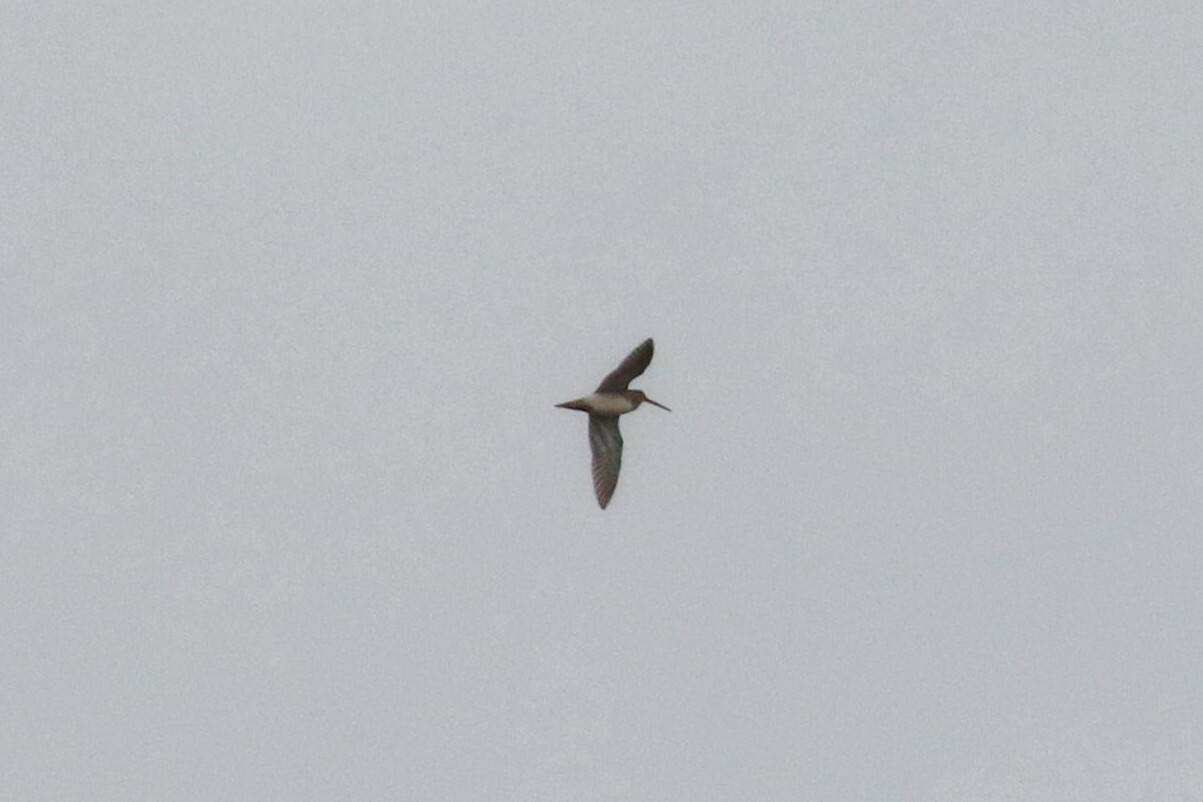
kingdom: Animalia
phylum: Chordata
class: Aves
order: Charadriiformes
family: Scolopacidae
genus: Gallinago
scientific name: Gallinago gallinago
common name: Common snipe
